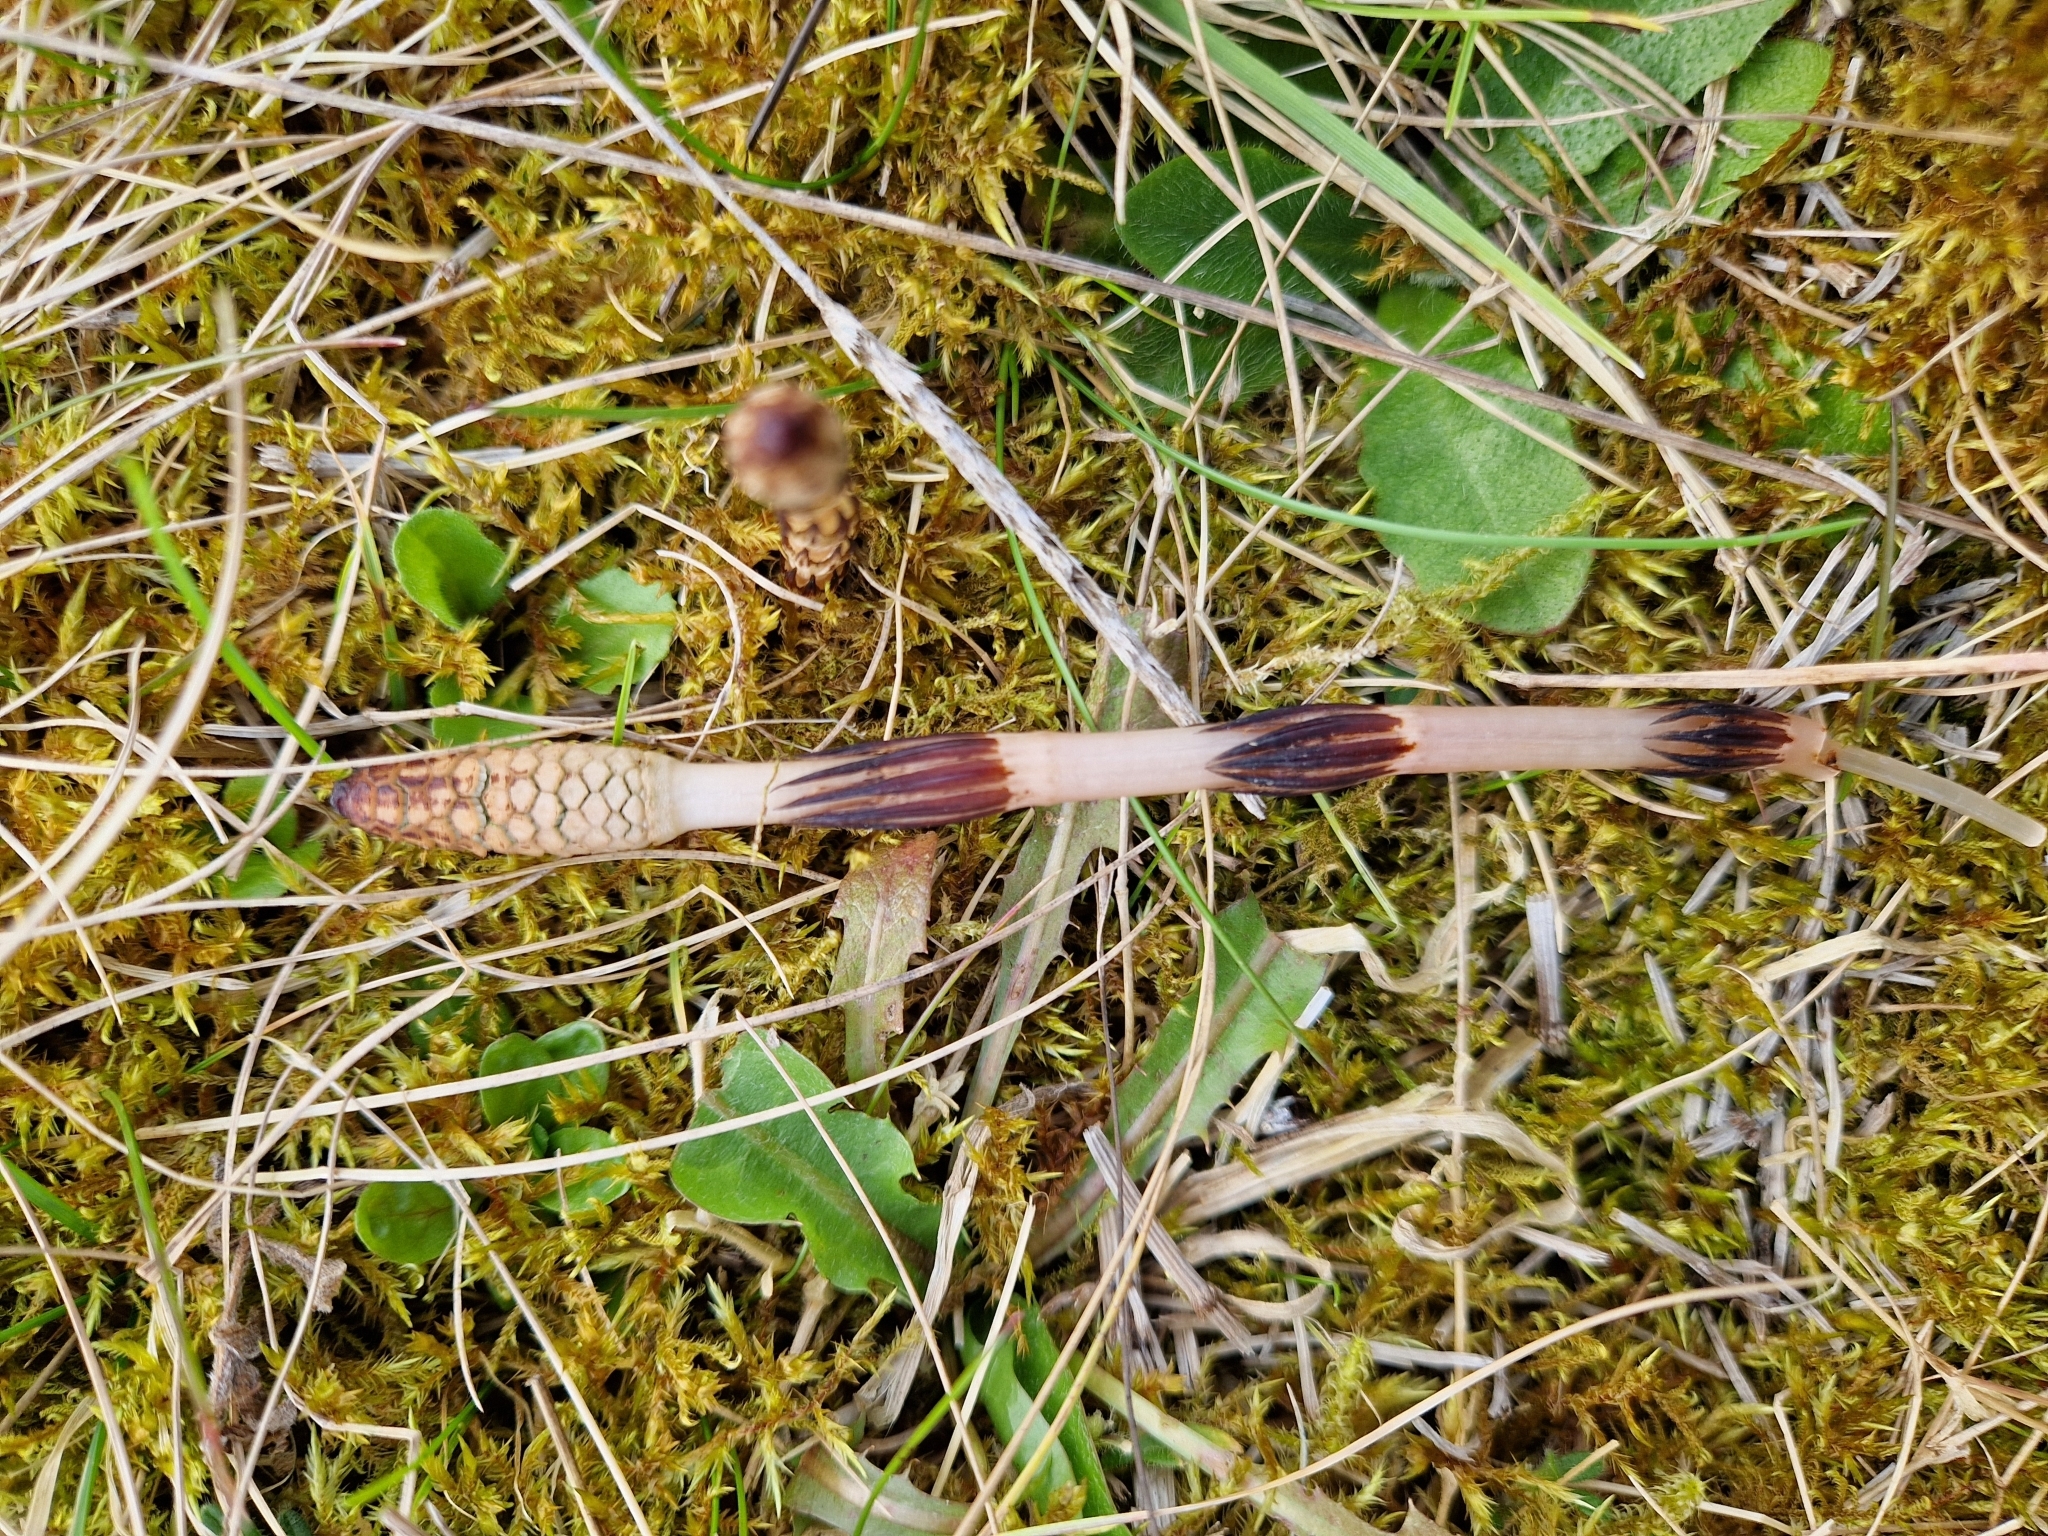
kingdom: Plantae
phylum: Tracheophyta
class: Polypodiopsida
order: Equisetales
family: Equisetaceae
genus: Equisetum
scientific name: Equisetum arvense
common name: Field horsetail
